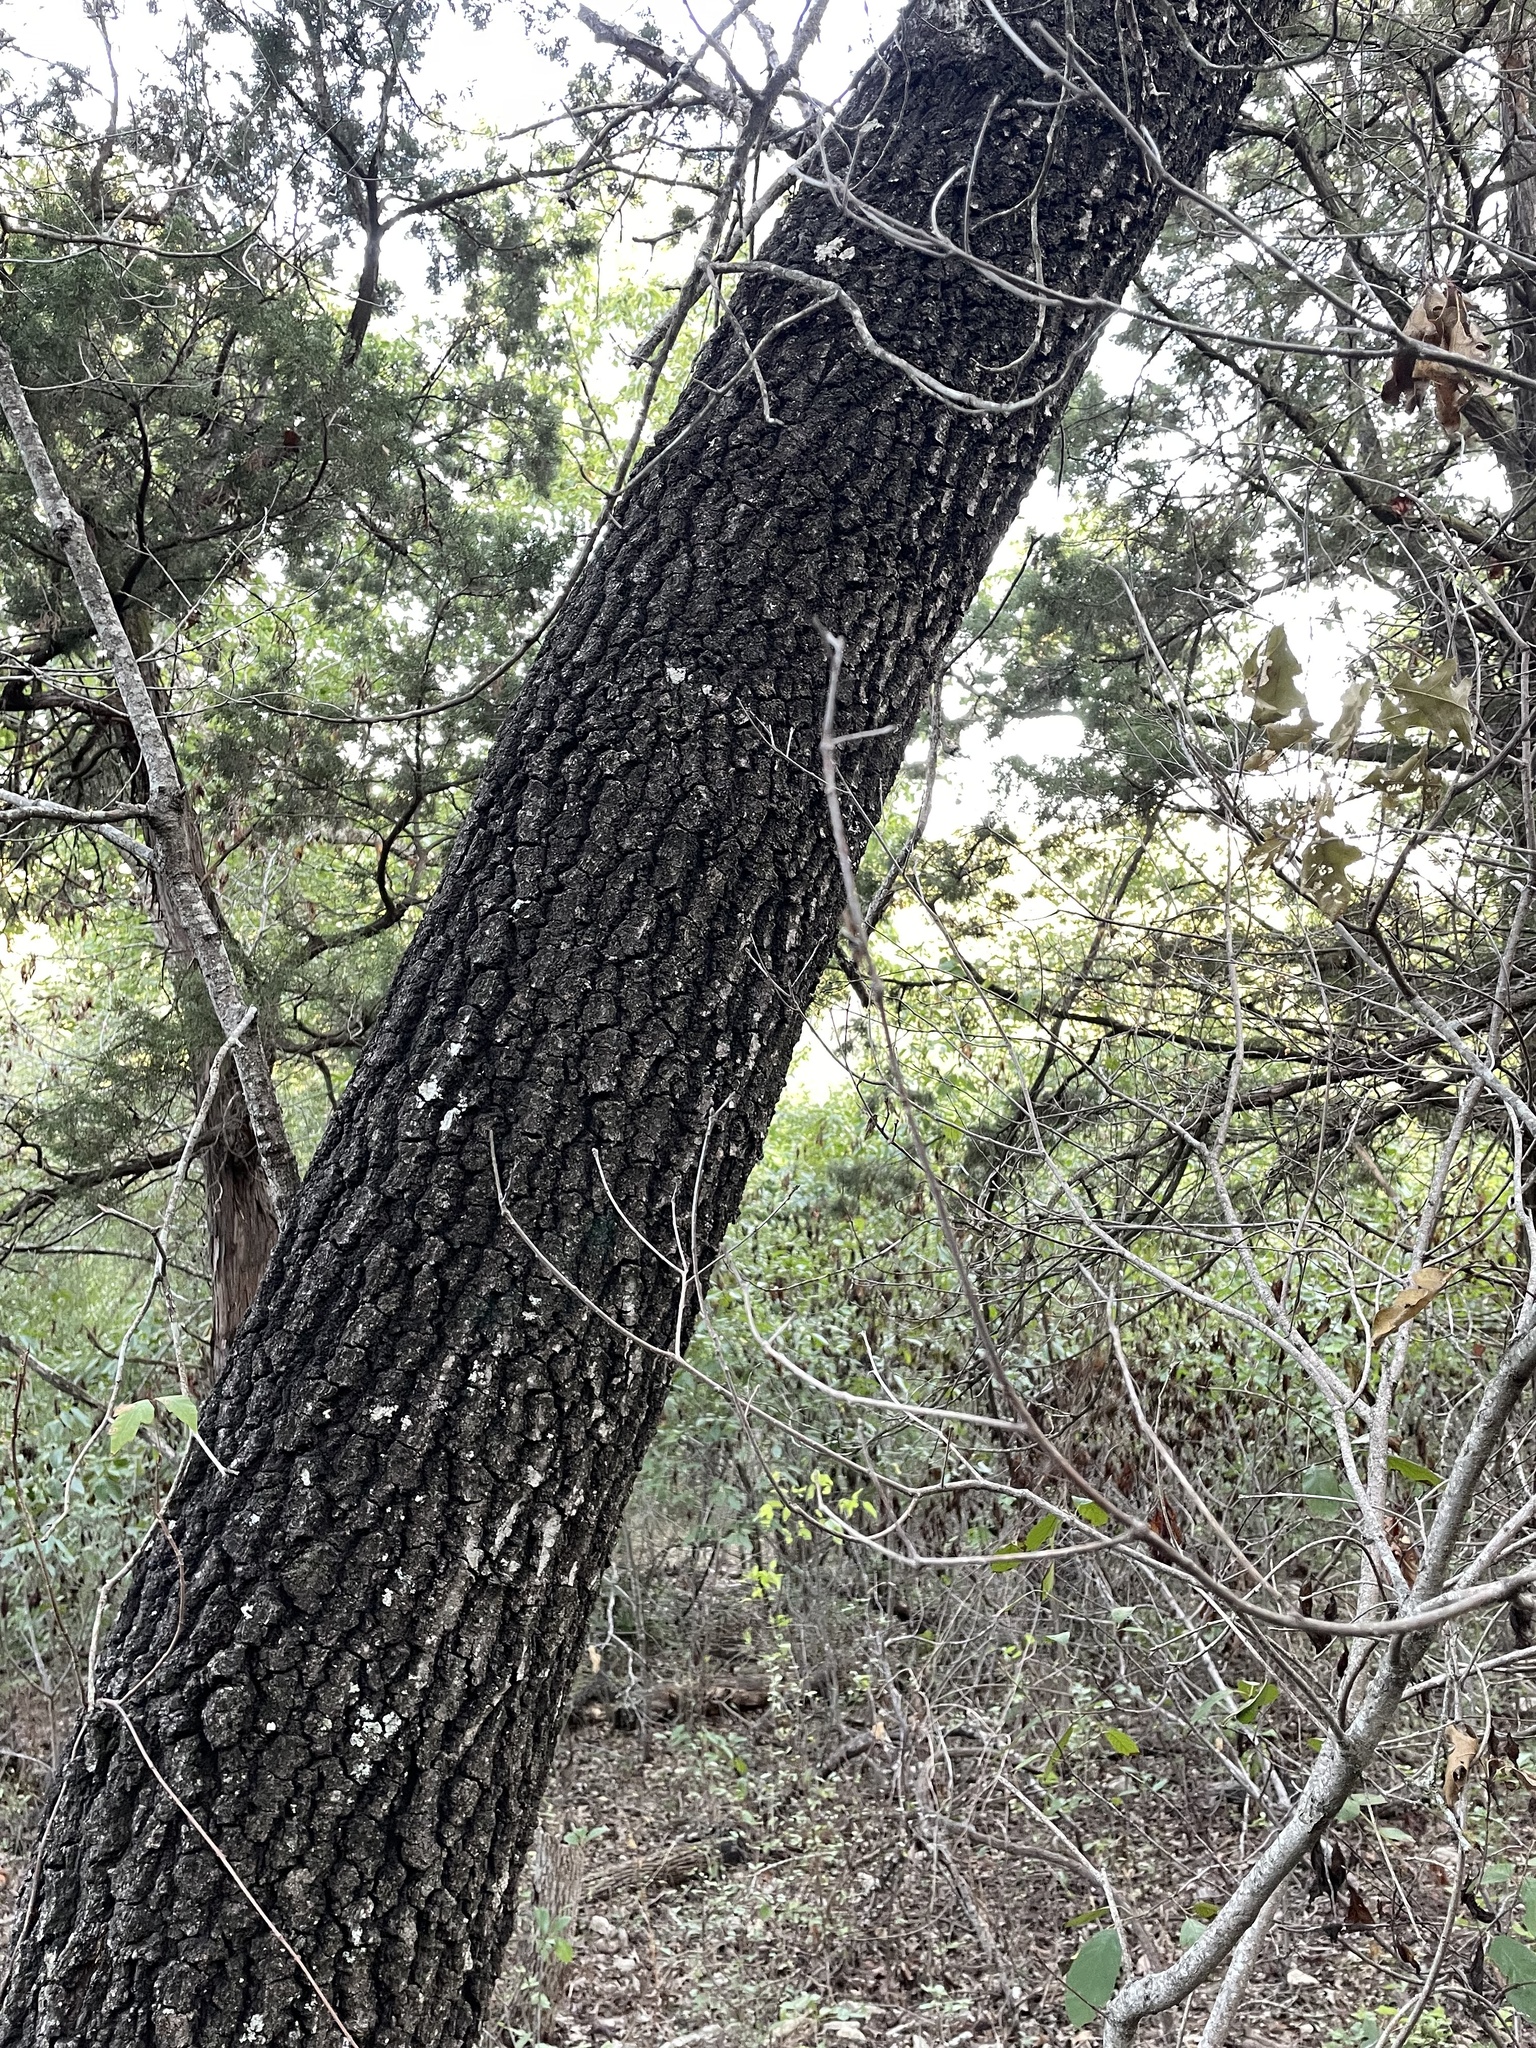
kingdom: Plantae
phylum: Tracheophyta
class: Magnoliopsida
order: Fagales
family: Fagaceae
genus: Quercus
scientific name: Quercus buckleyi
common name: Buckley oak
